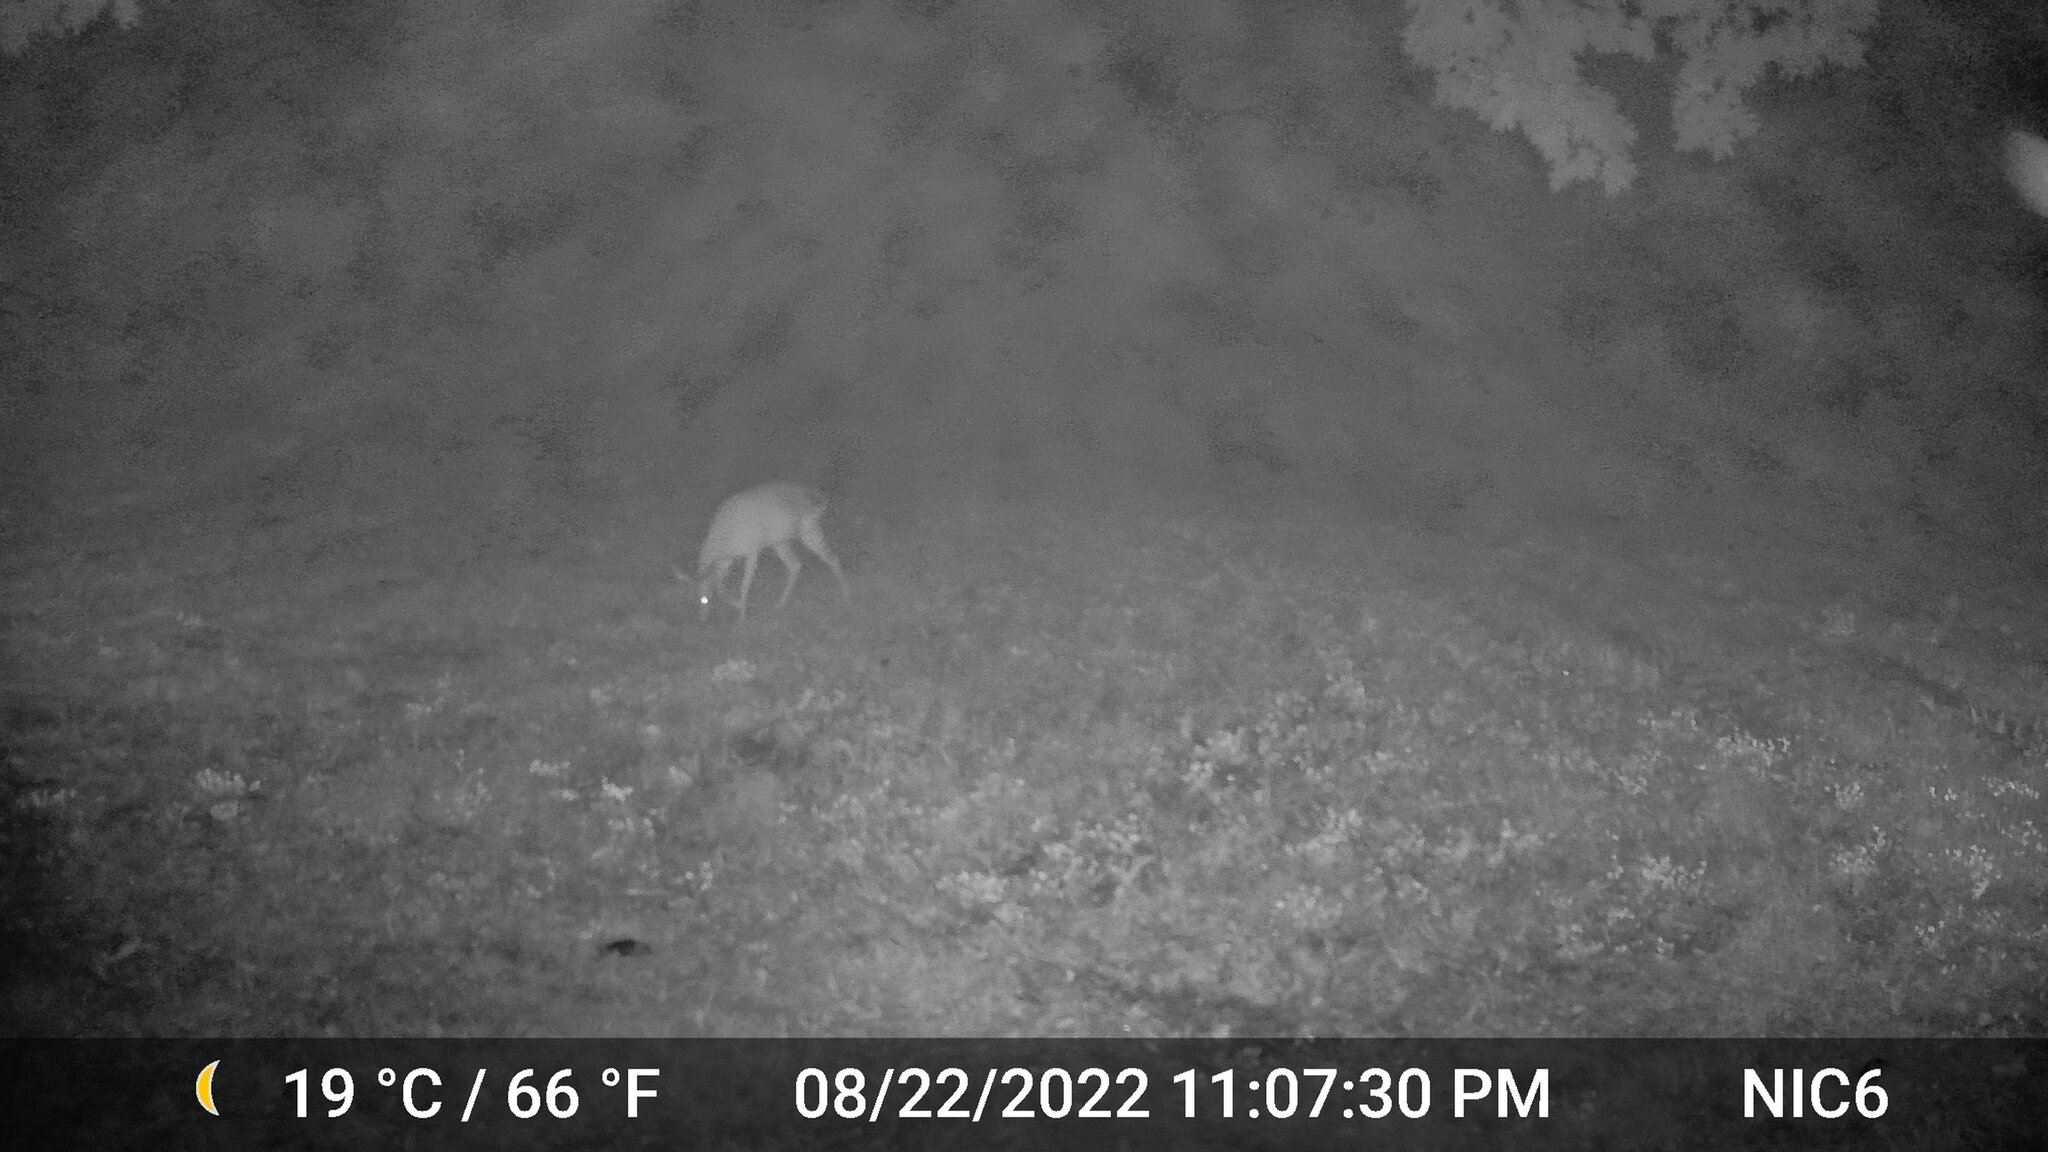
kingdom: Animalia
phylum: Chordata
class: Mammalia
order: Artiodactyla
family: Cervidae
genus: Odocoileus
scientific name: Odocoileus virginianus
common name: White-tailed deer
